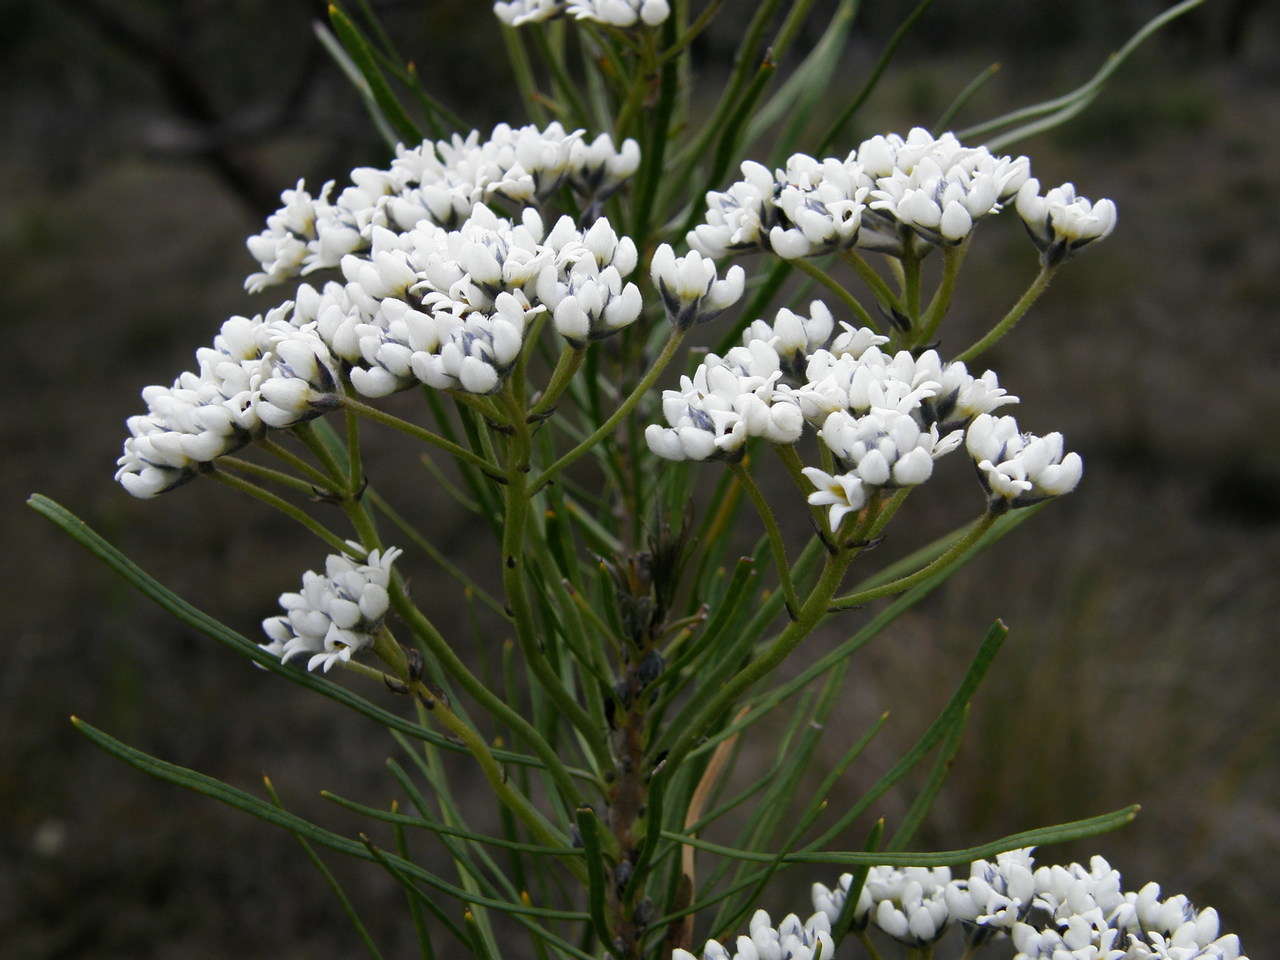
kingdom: Plantae
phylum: Tracheophyta
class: Magnoliopsida
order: Proteales
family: Proteaceae
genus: Conospermum
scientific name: Conospermum mitchellii
